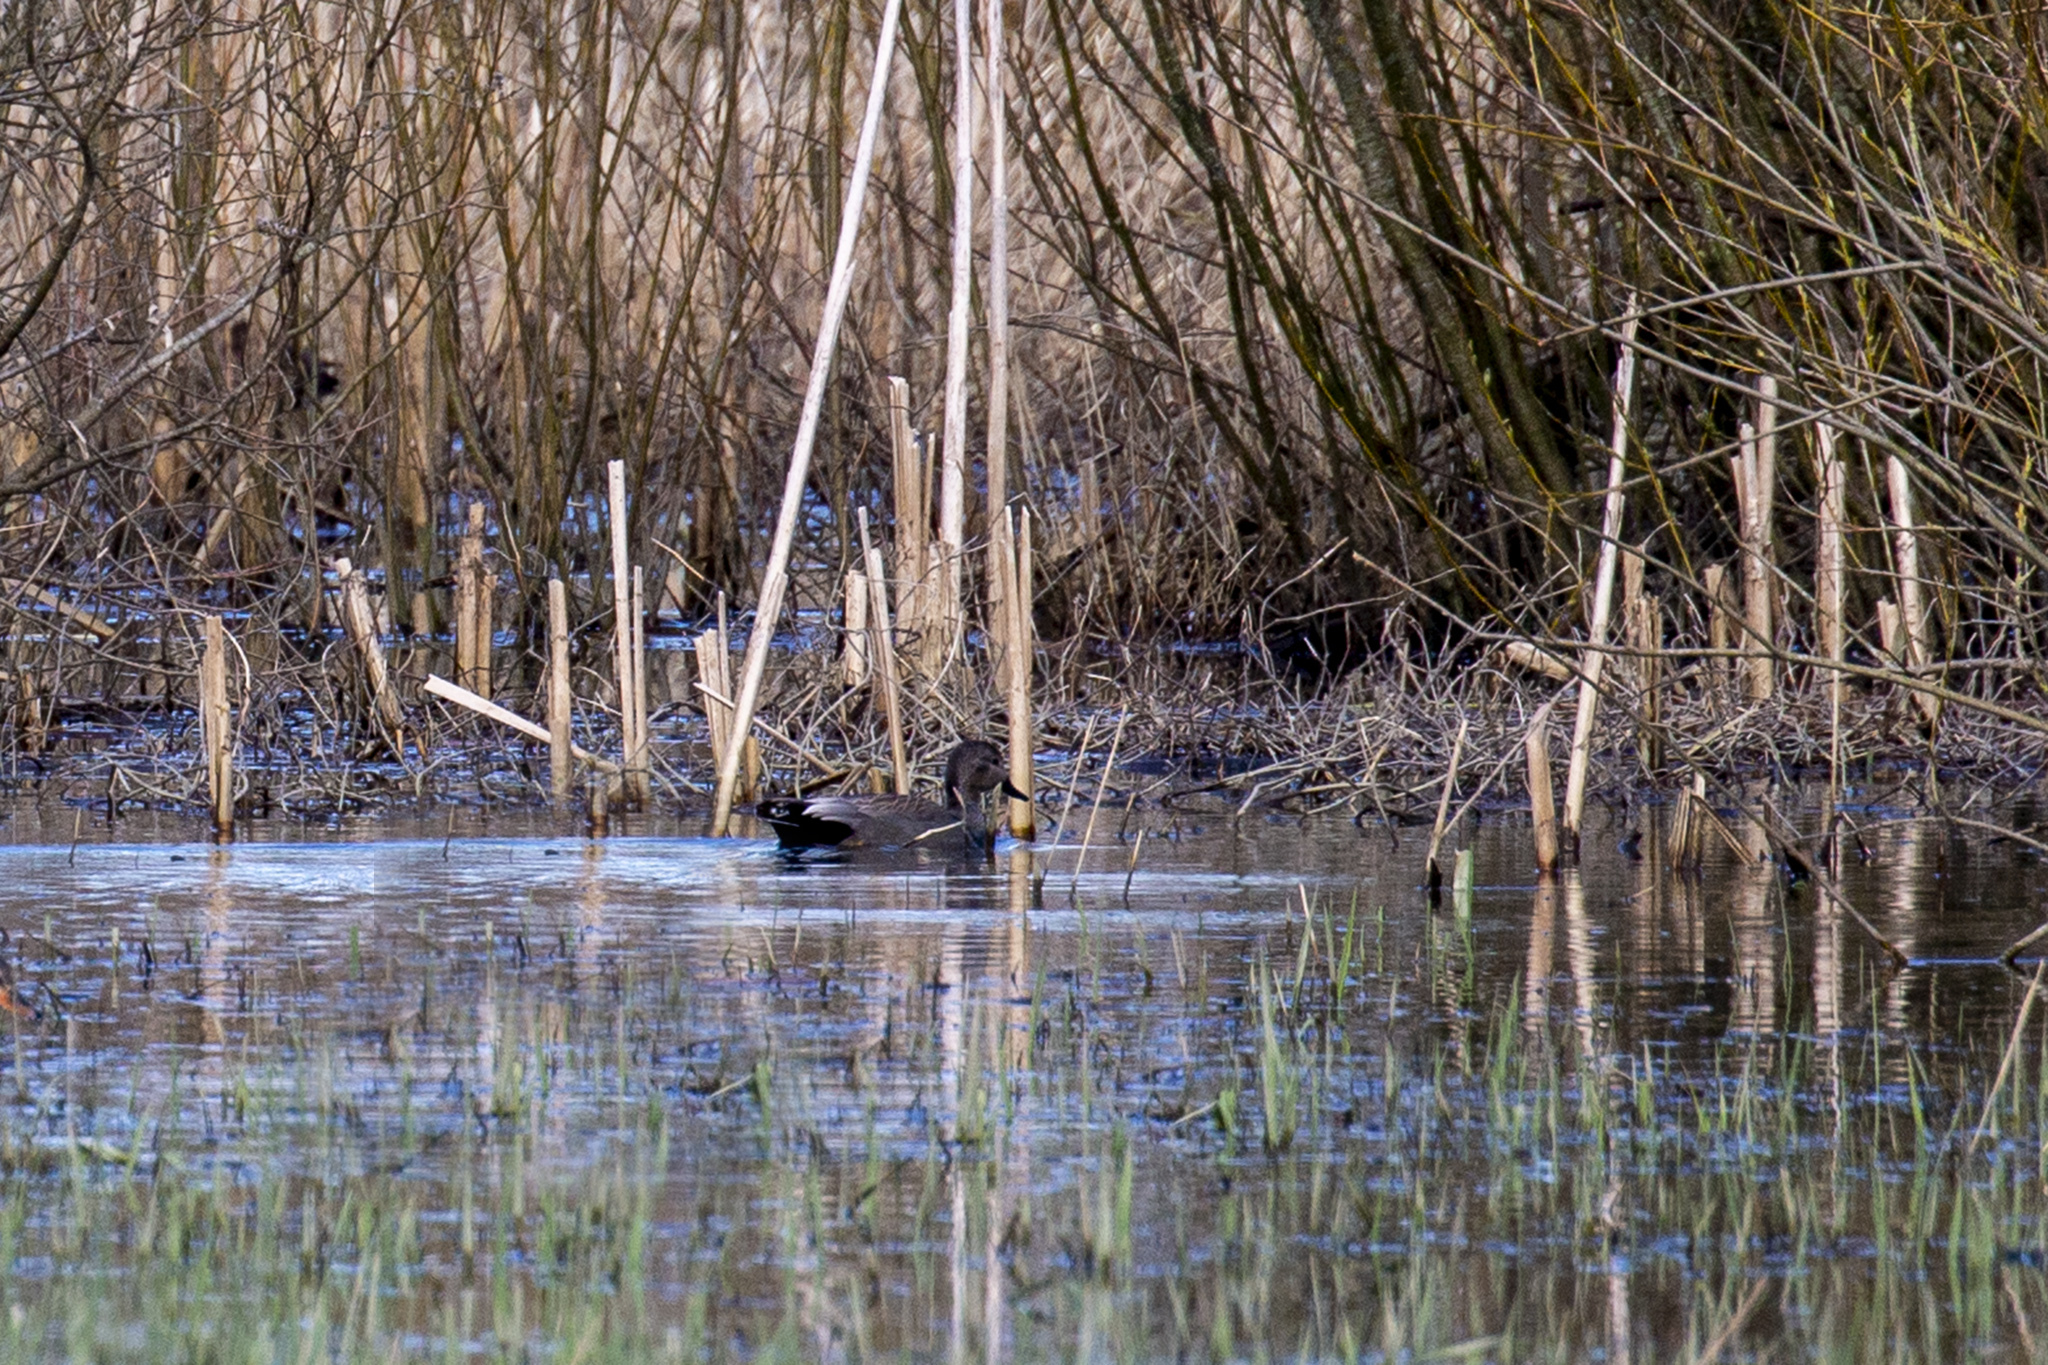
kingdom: Animalia
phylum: Chordata
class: Aves
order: Anseriformes
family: Anatidae
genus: Mareca
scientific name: Mareca strepera
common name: Gadwall
